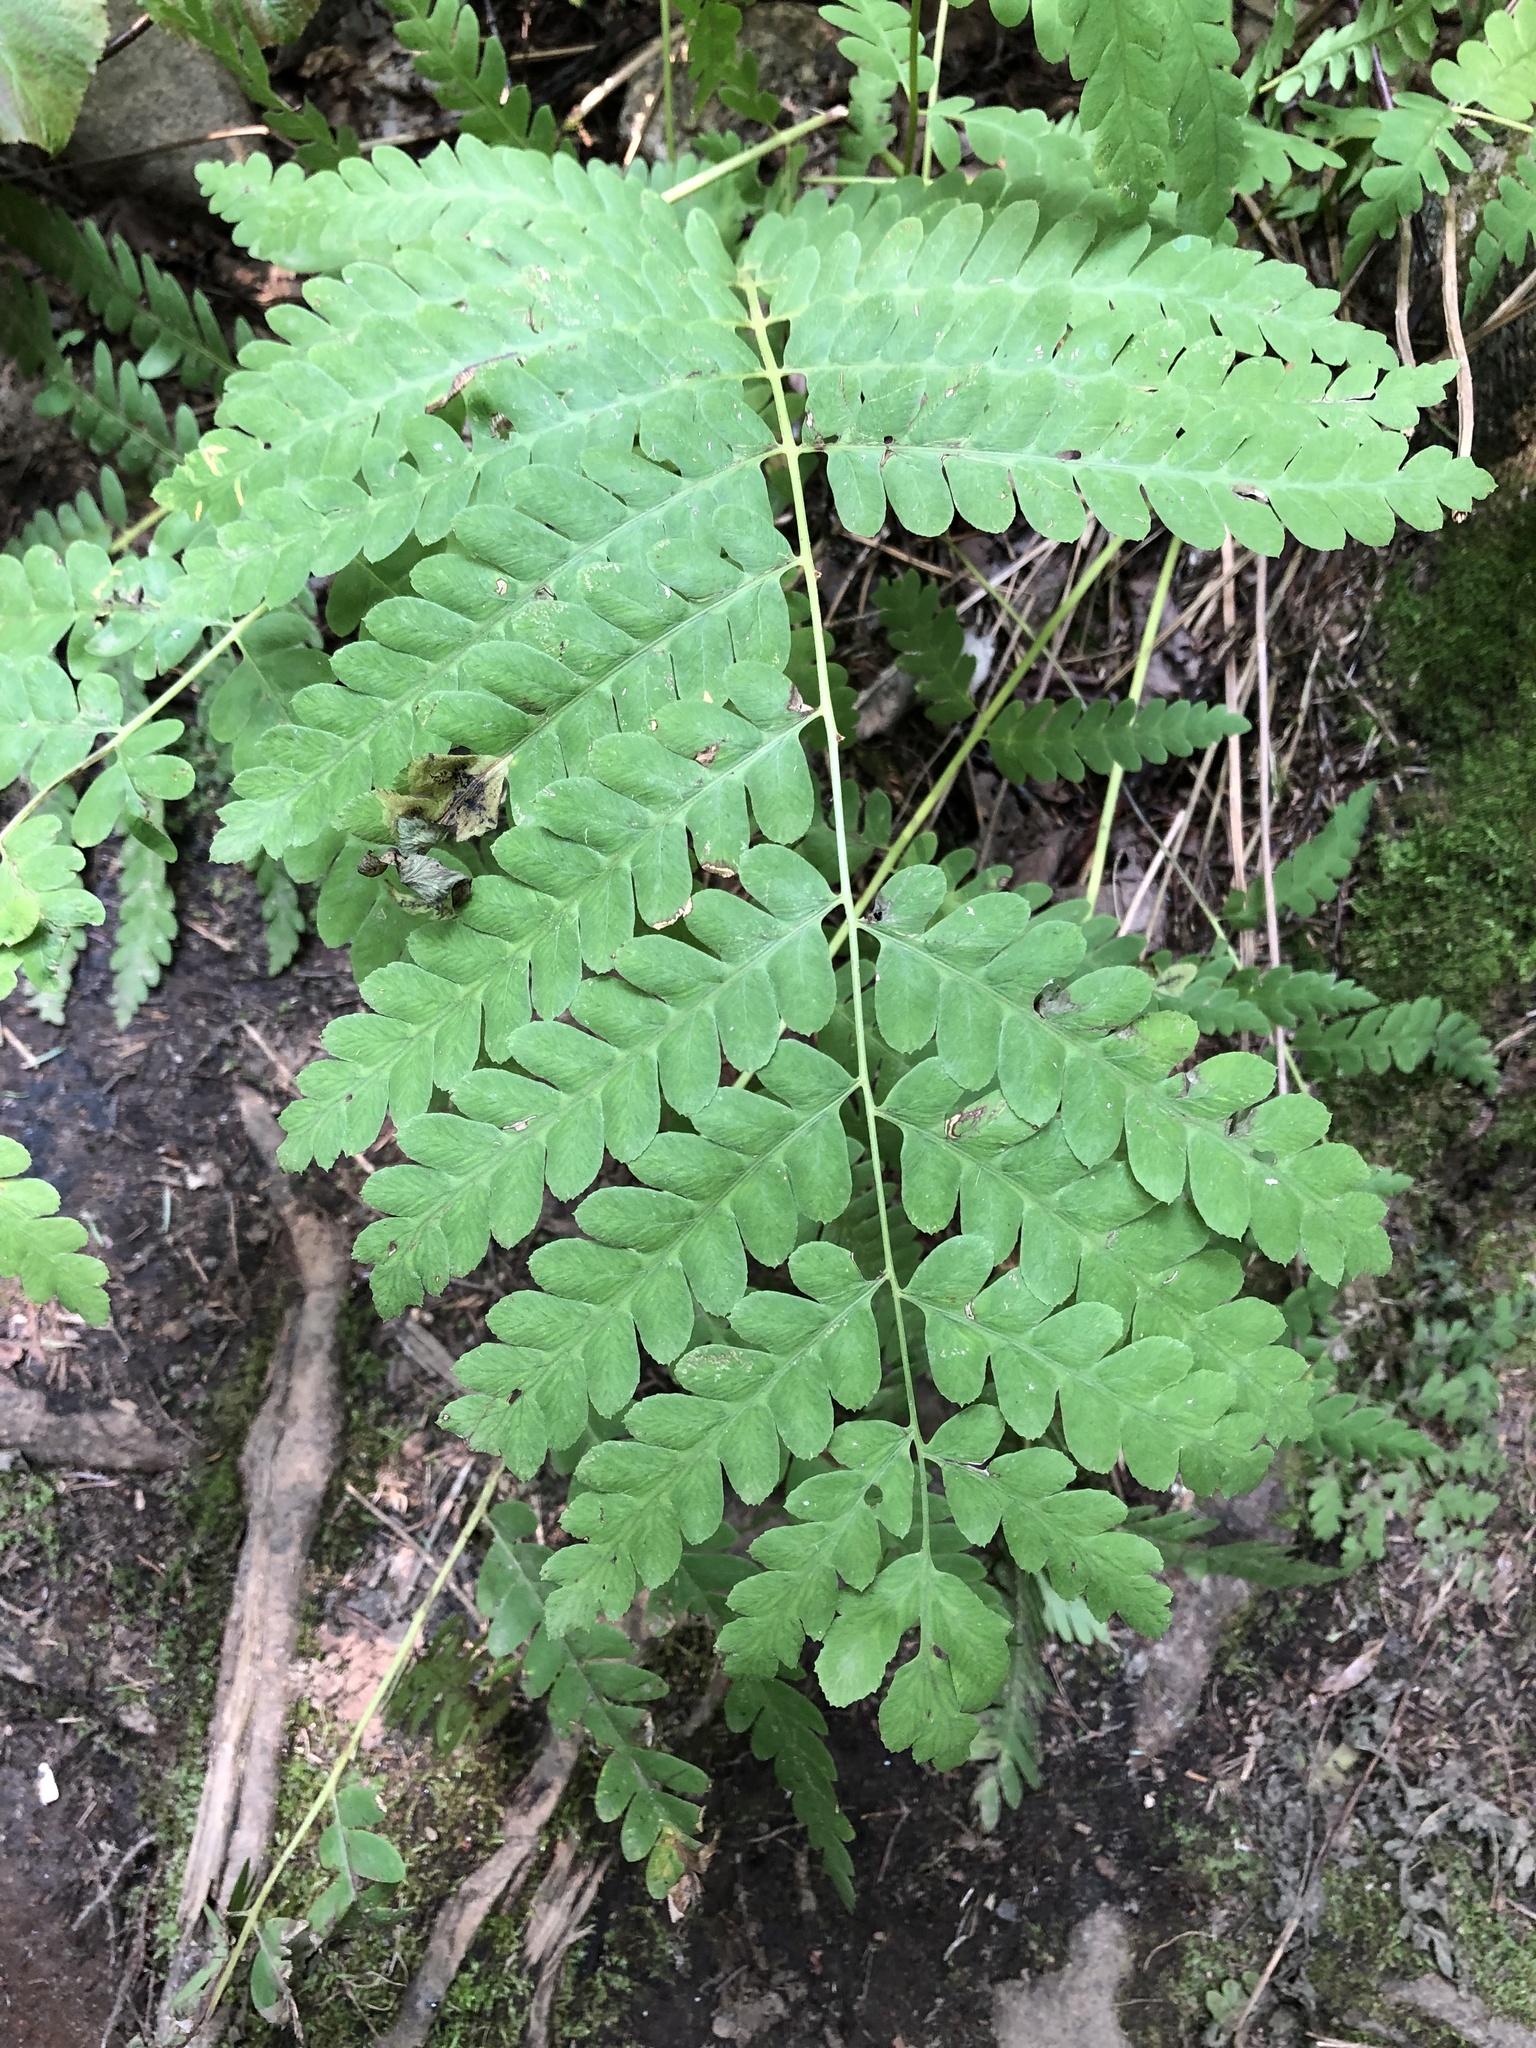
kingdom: Plantae
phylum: Tracheophyta
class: Polypodiopsida
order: Osmundales
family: Osmundaceae
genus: Claytosmunda
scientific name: Claytosmunda claytoniana
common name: Clayton's fern
